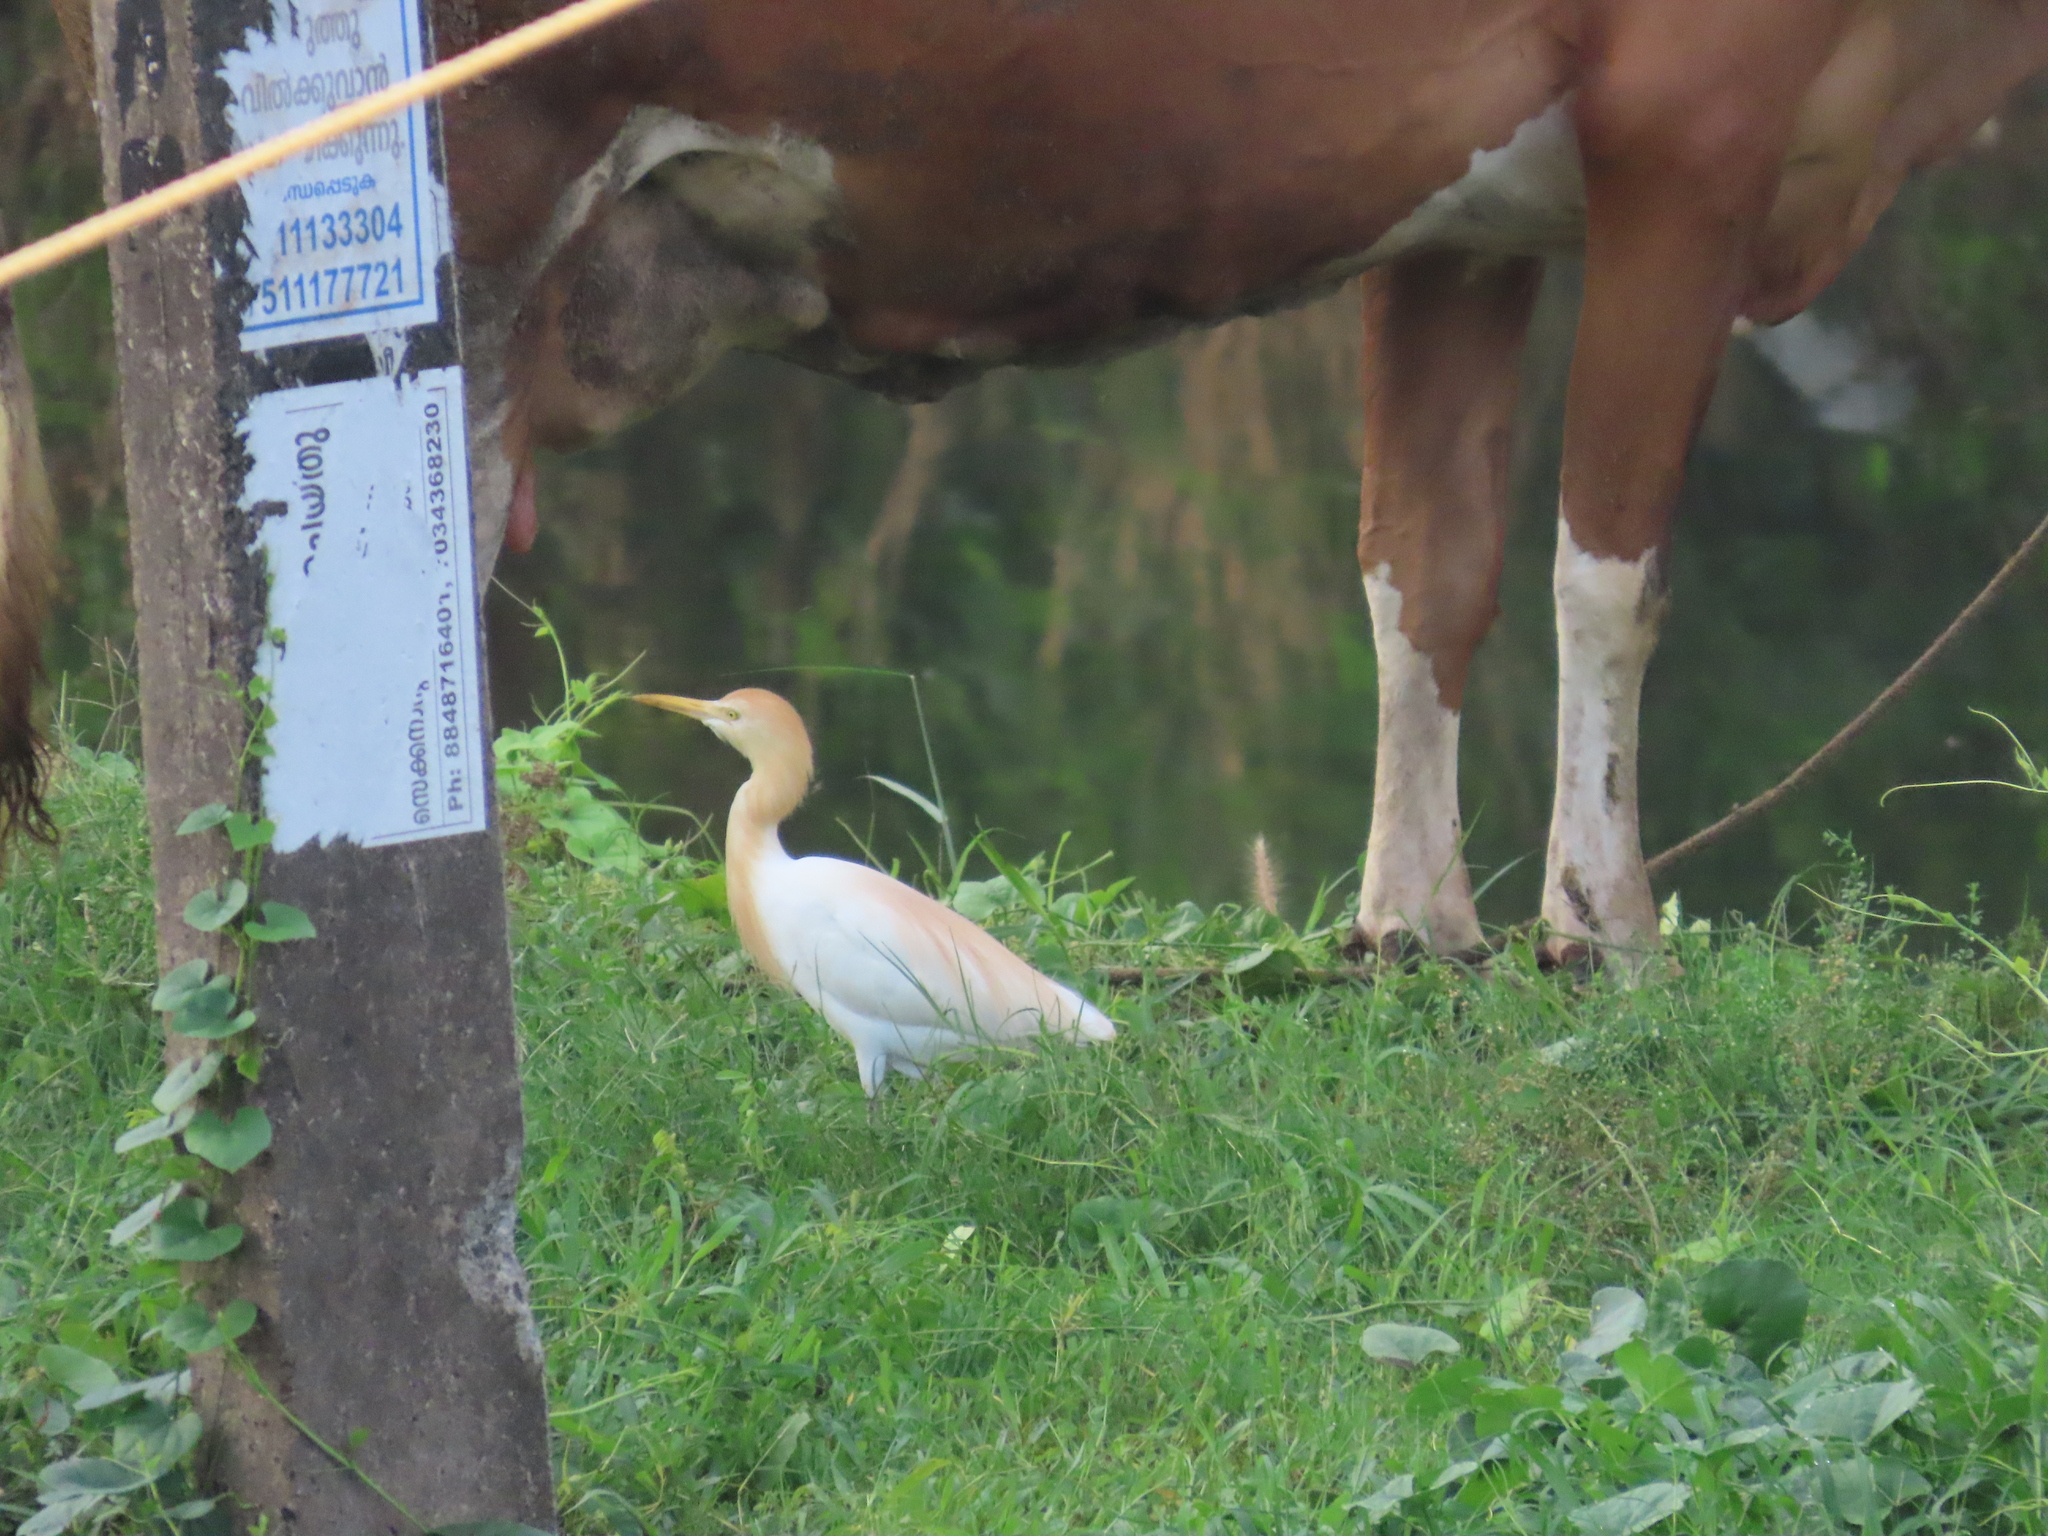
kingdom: Animalia
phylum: Chordata
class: Aves
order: Pelecaniformes
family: Ardeidae
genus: Bubulcus
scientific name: Bubulcus coromandus
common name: Eastern cattle egret
